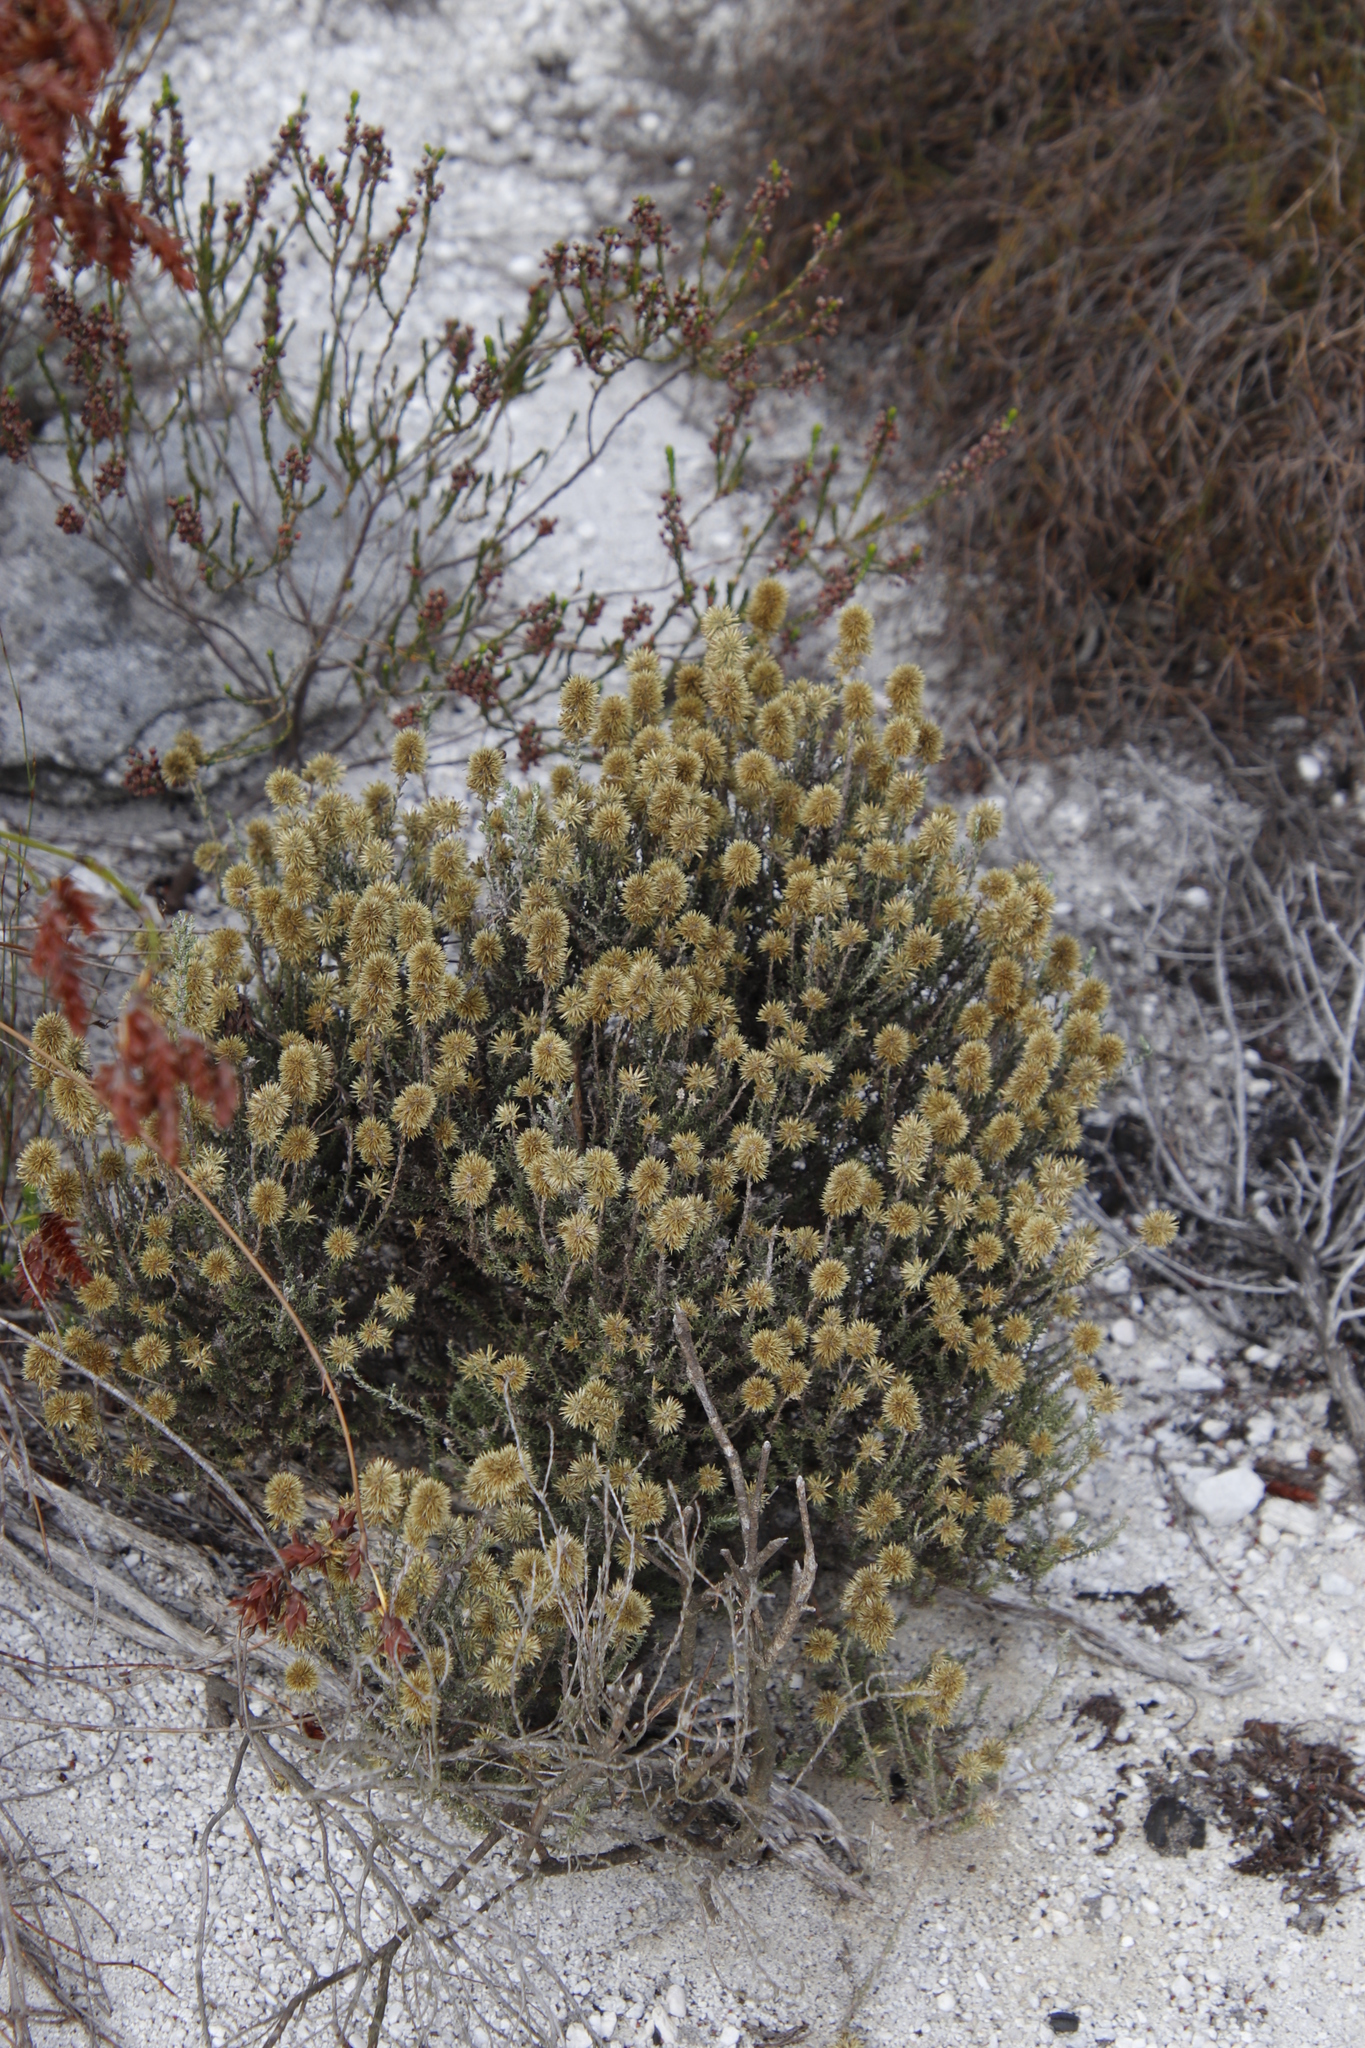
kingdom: Plantae
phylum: Tracheophyta
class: Magnoliopsida
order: Asterales
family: Asteraceae
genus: Seriphium
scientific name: Seriphium spirale
